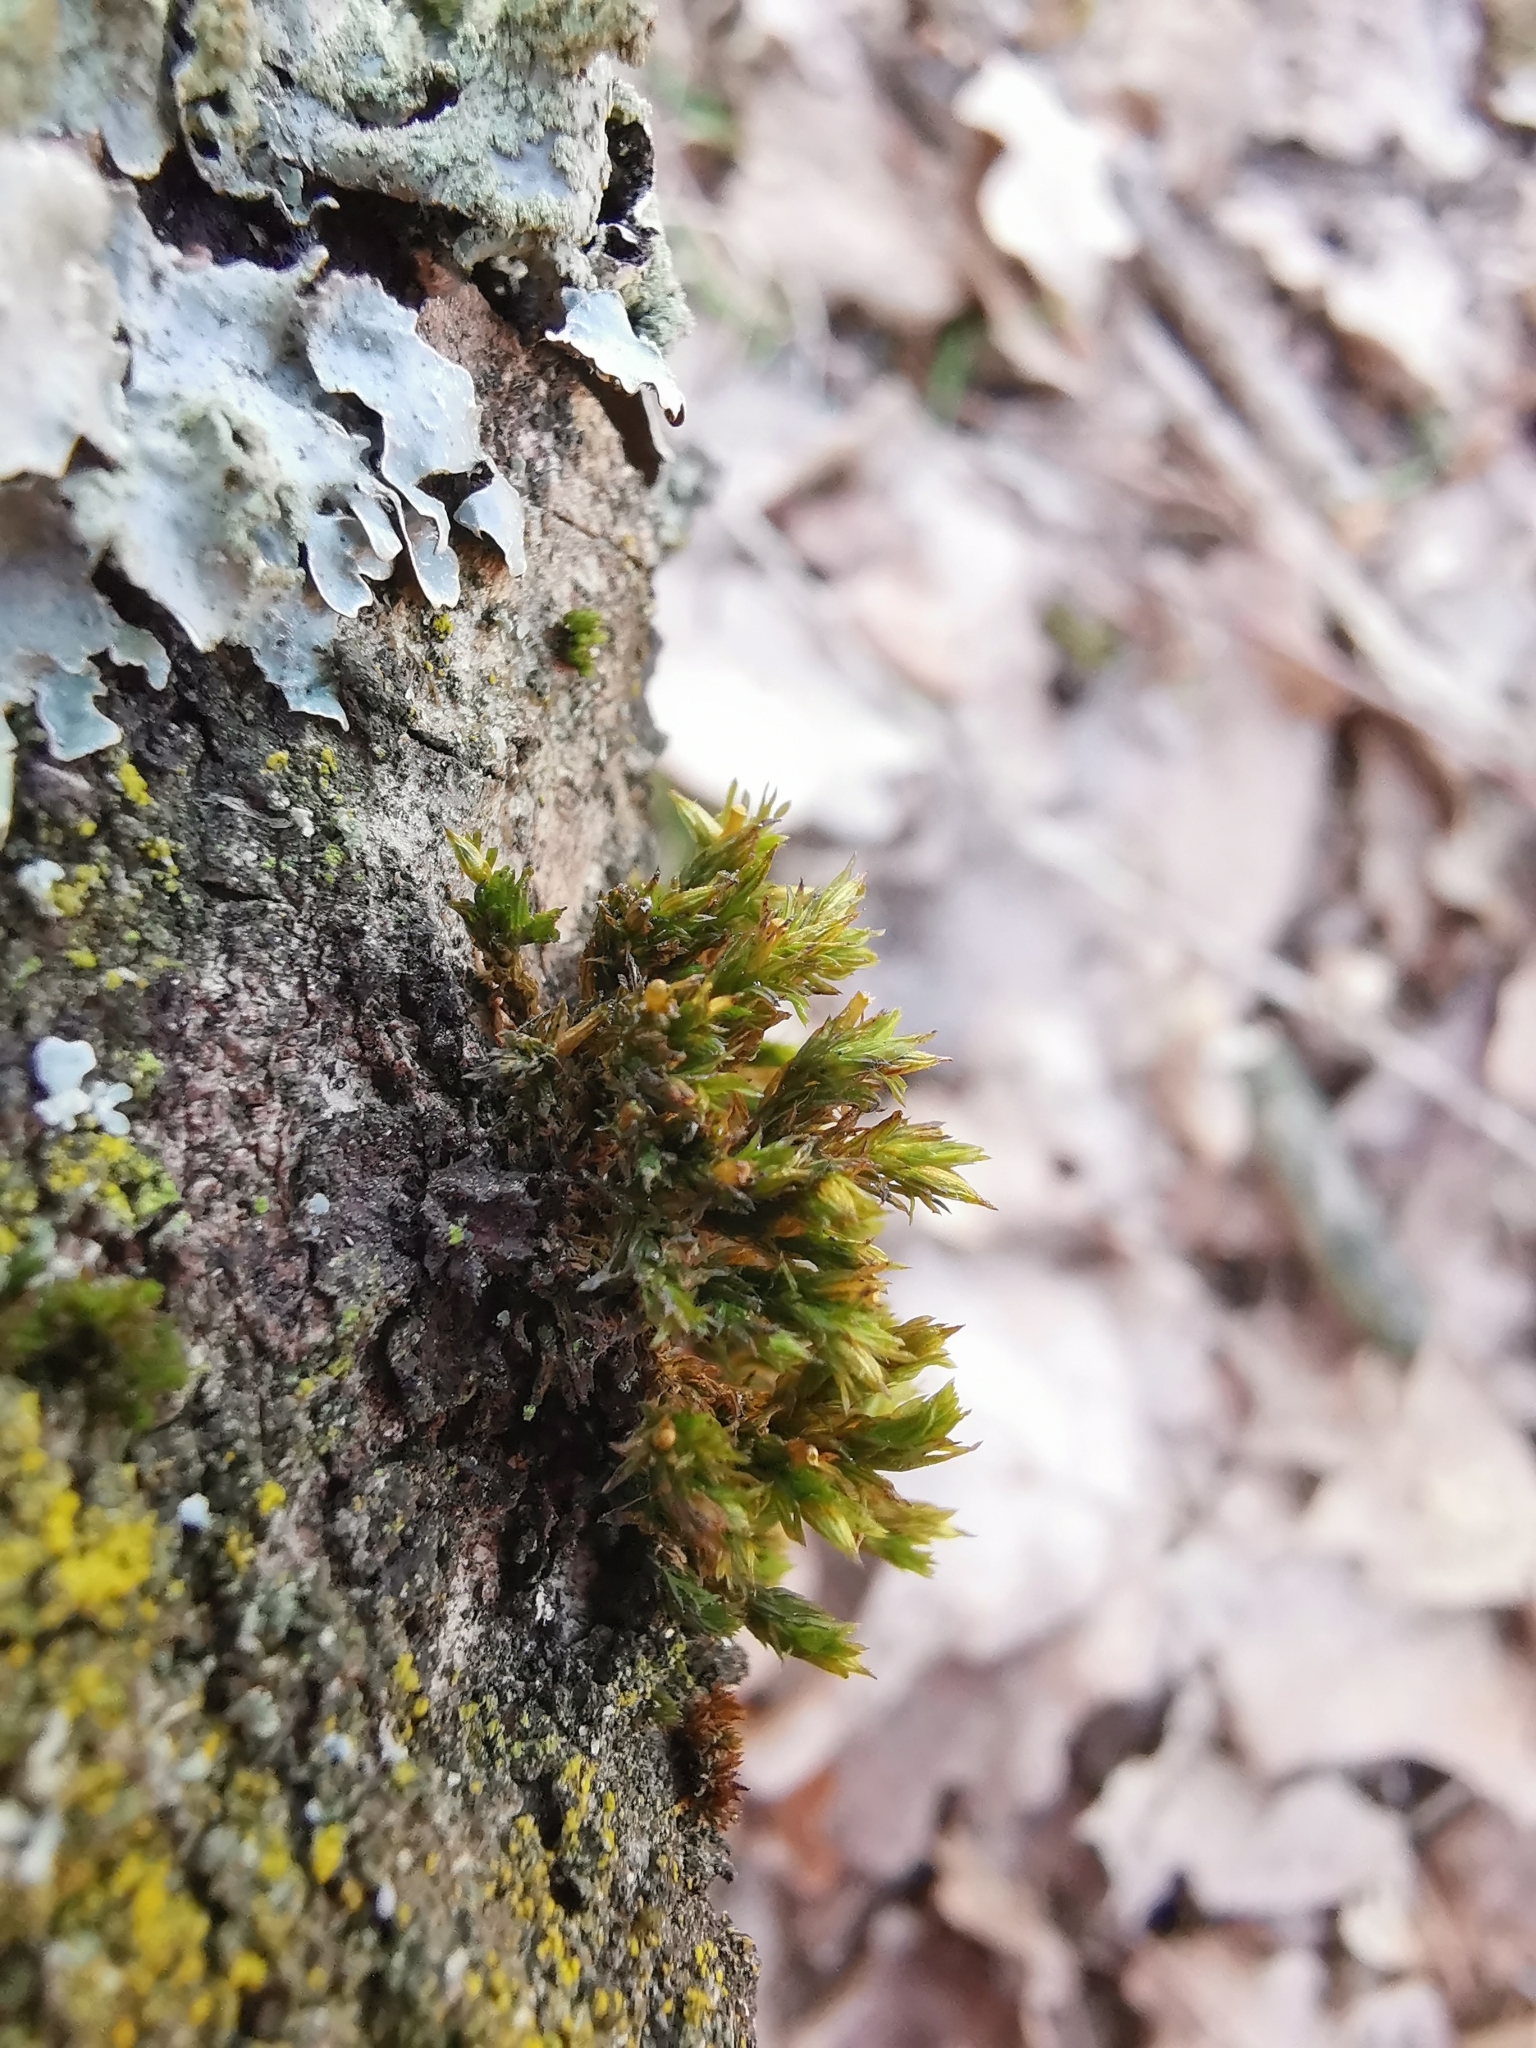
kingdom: Plantae
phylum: Bryophyta
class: Bryopsida
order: Orthotrichales
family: Orthotrichaceae
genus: Lewinskya
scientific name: Lewinskya affinis
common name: Wood bristle-moss
